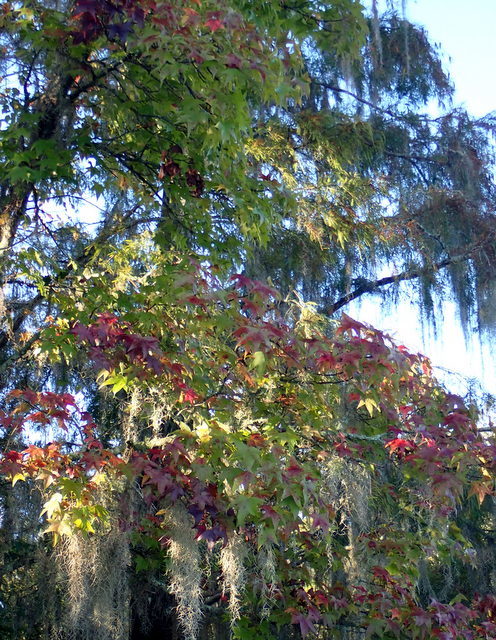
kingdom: Plantae
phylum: Tracheophyta
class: Magnoliopsida
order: Saxifragales
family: Altingiaceae
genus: Liquidambar
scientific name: Liquidambar styraciflua
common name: Sweet gum
